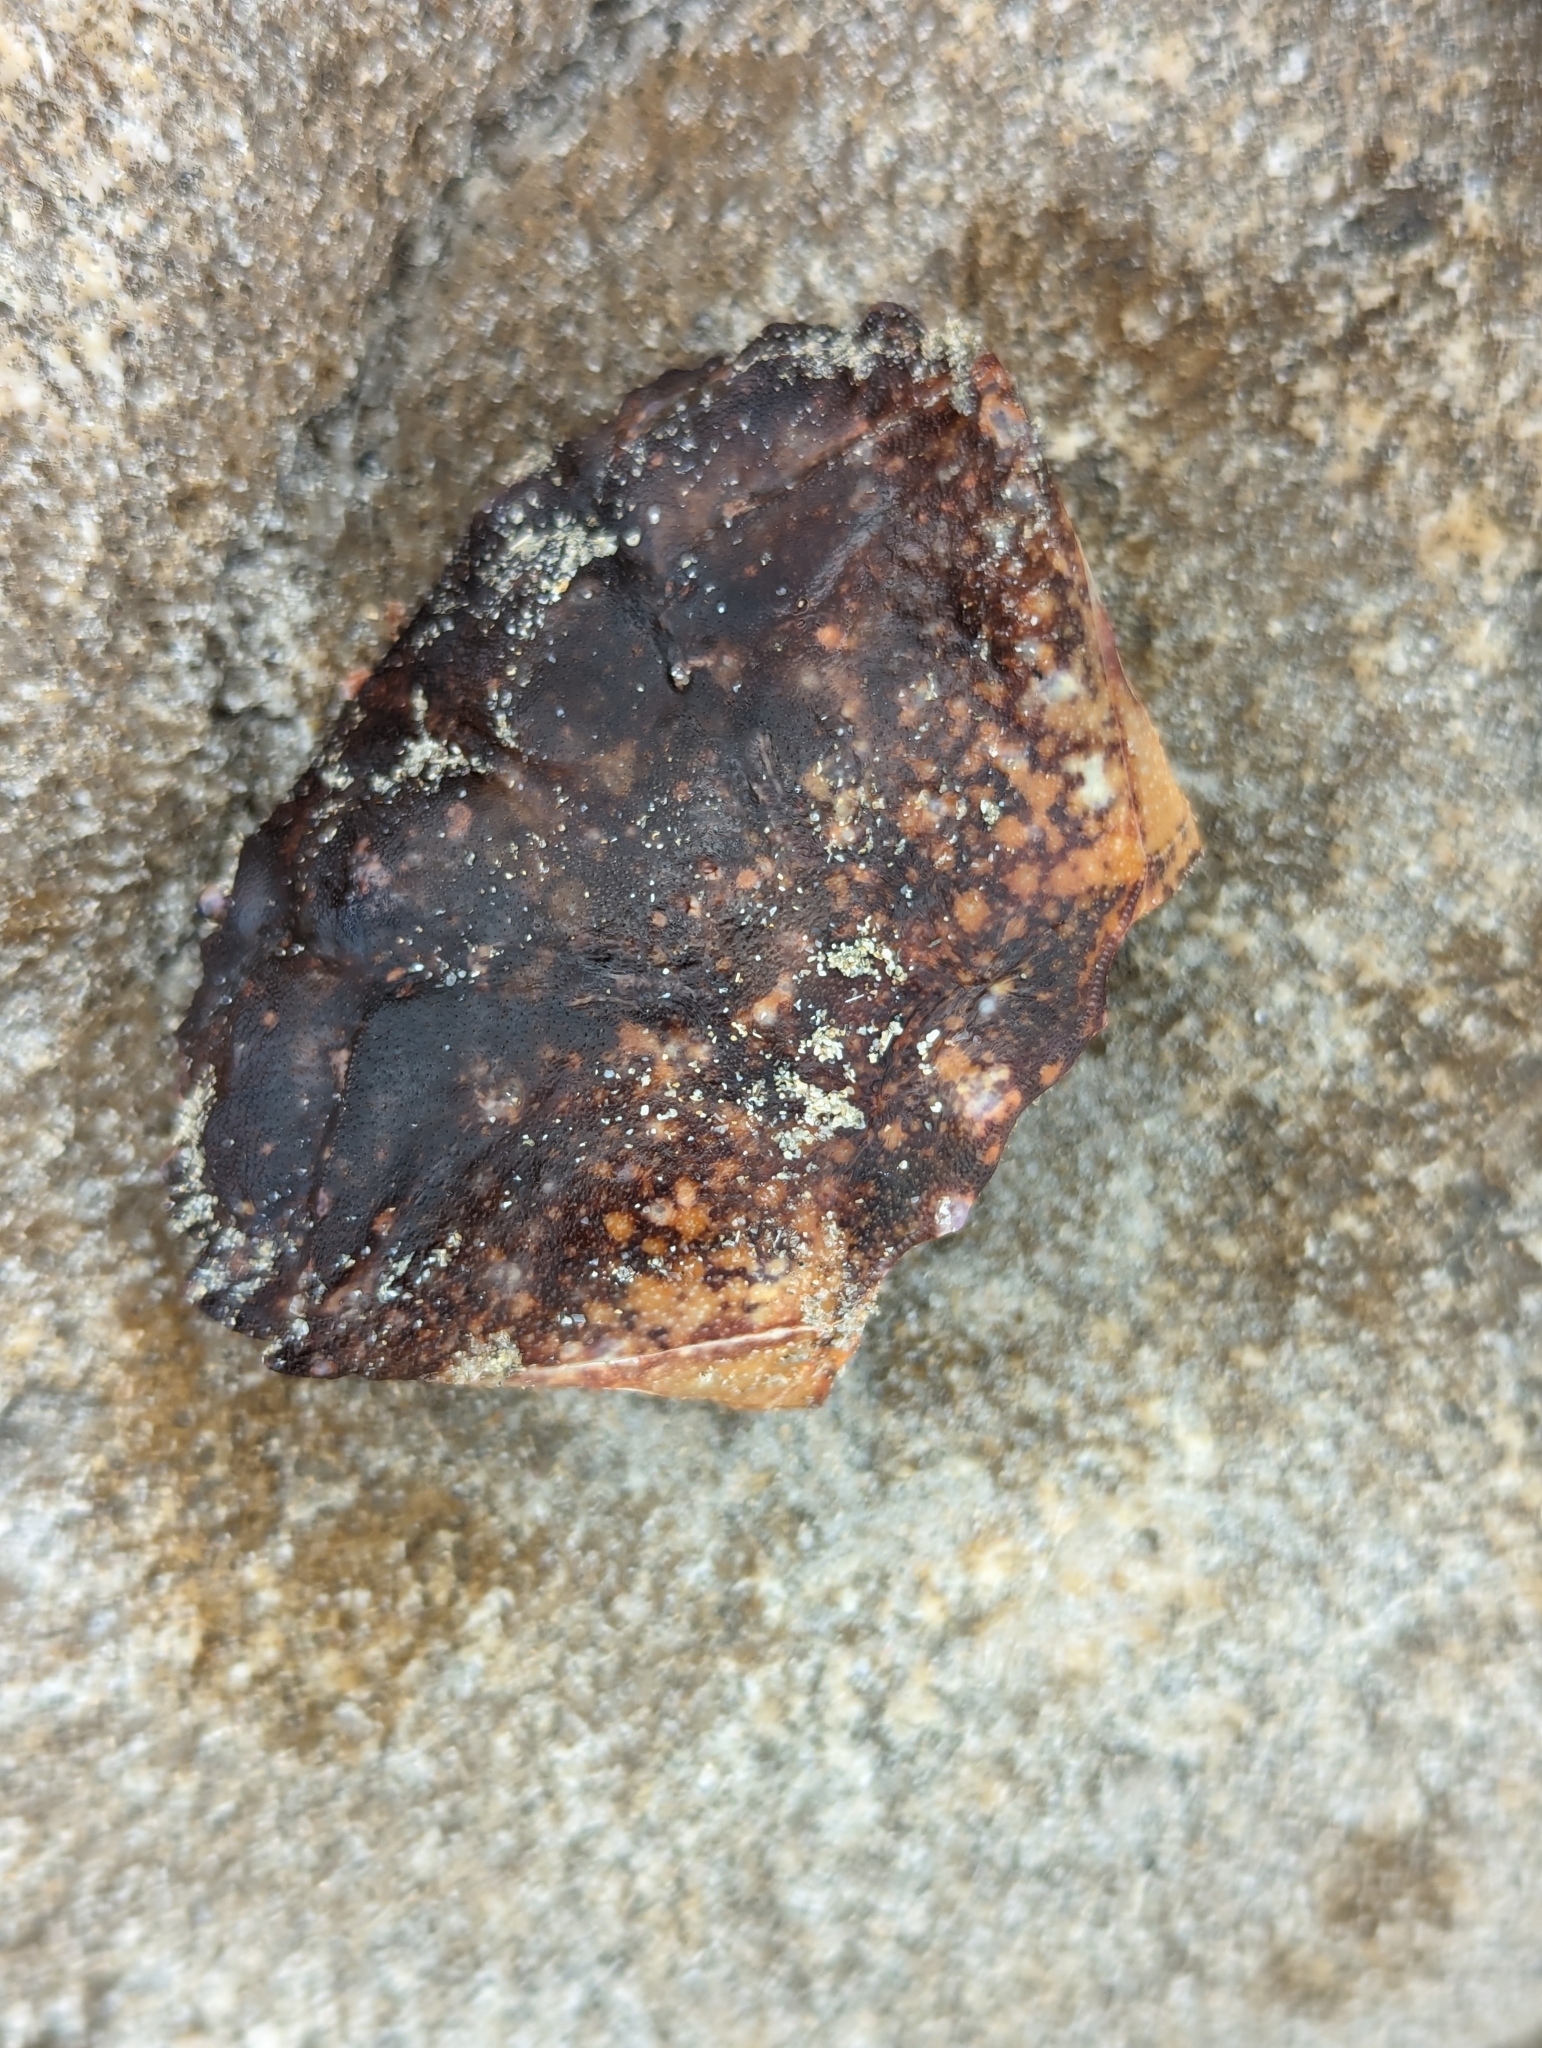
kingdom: Animalia
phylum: Arthropoda
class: Malacostraca
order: Decapoda
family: Oziidae
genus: Ozius
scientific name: Ozius truncatus
